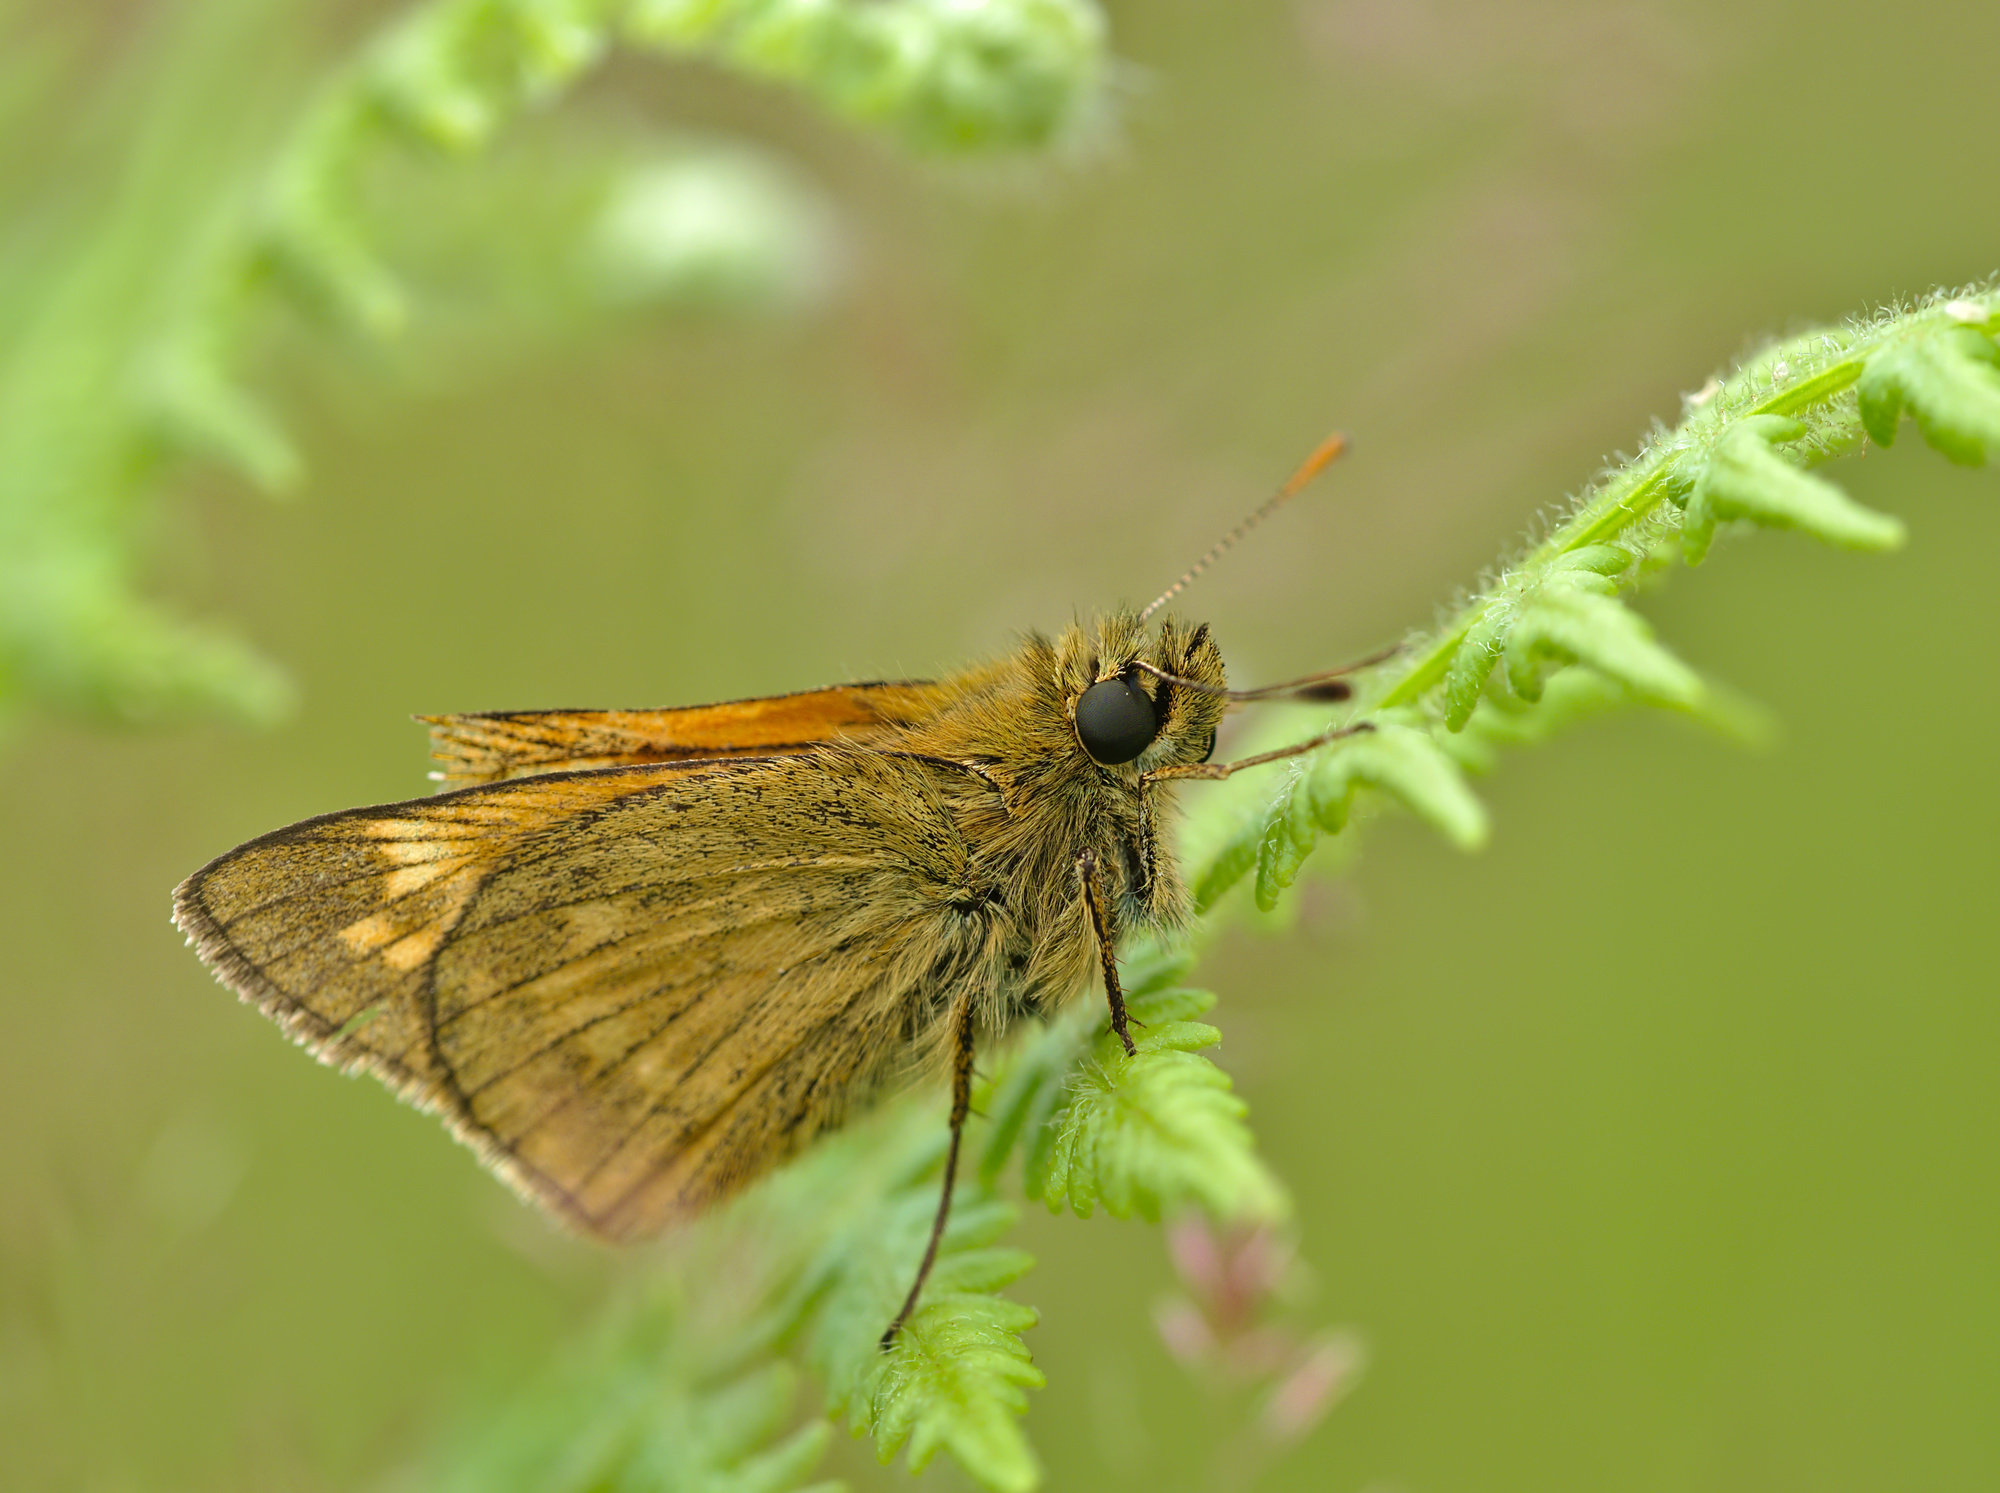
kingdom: Animalia
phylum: Arthropoda
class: Insecta
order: Lepidoptera
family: Hesperiidae
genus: Ochlodes
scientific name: Ochlodes venata
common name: Large skipper
